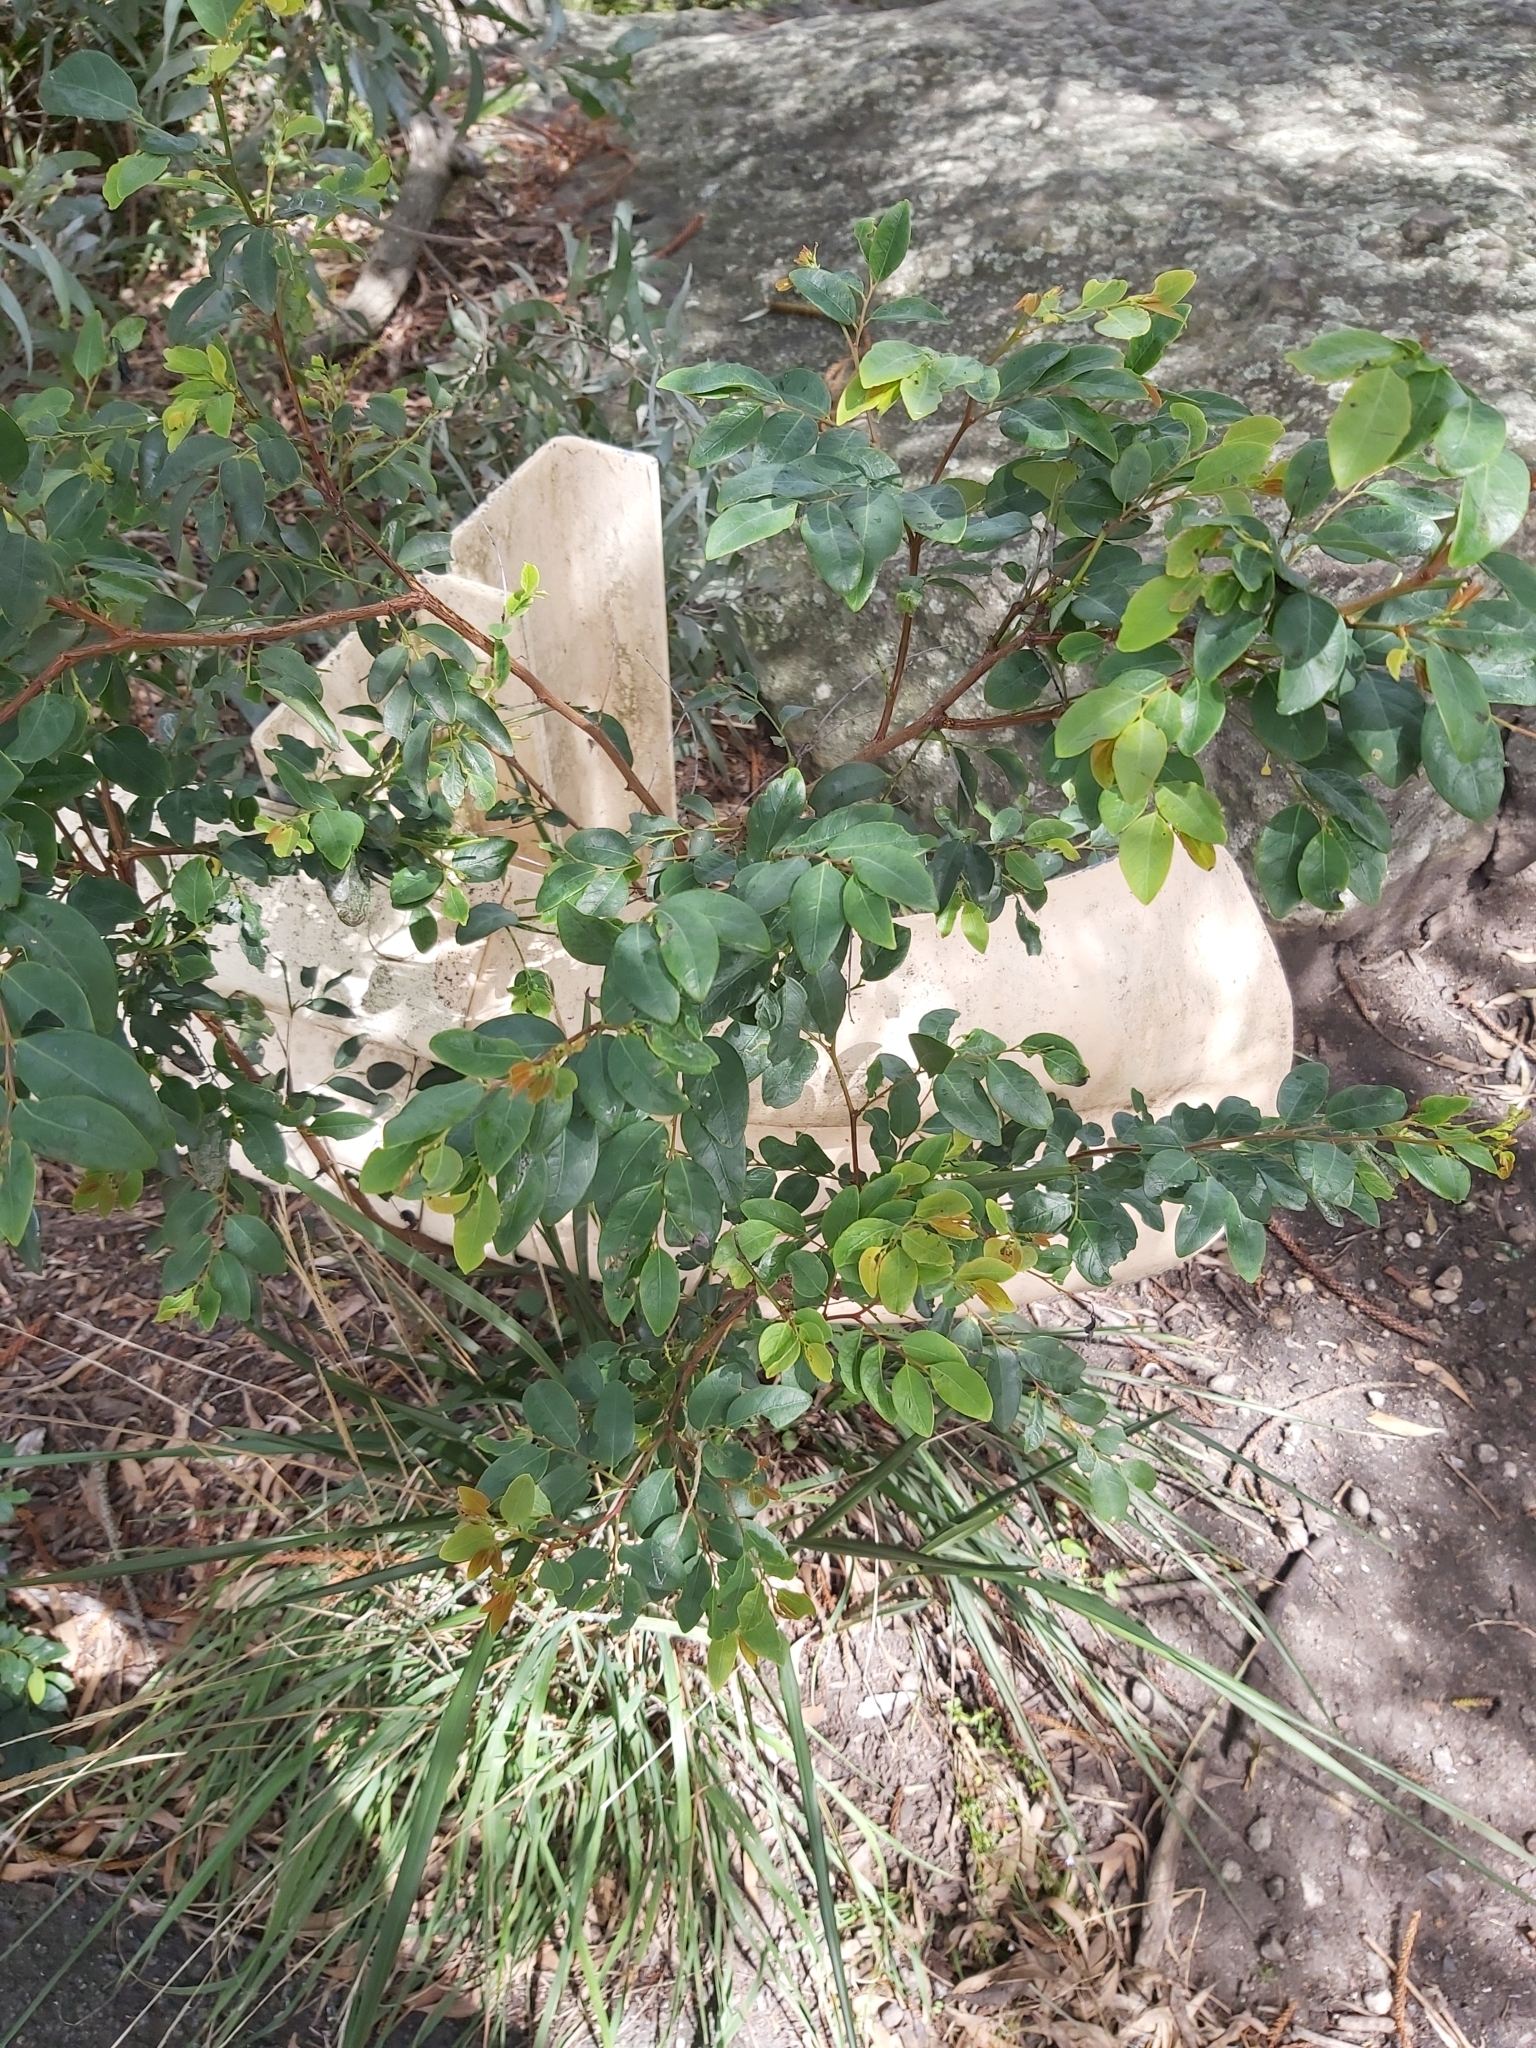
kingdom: Plantae
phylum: Tracheophyta
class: Magnoliopsida
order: Malpighiales
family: Phyllanthaceae
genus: Breynia
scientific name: Breynia oblongifolia
